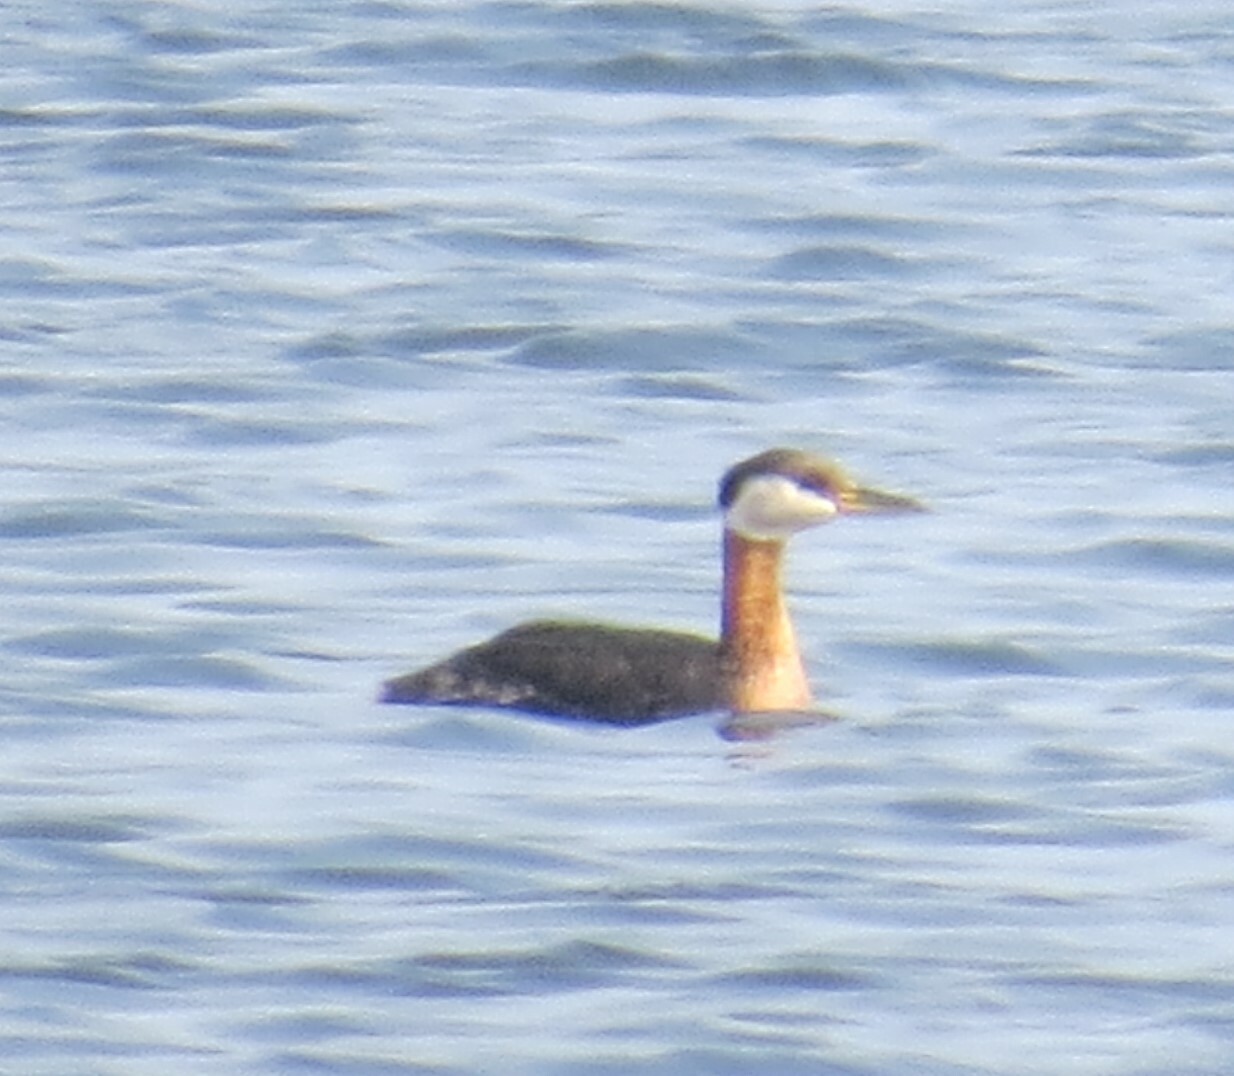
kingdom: Animalia
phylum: Chordata
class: Aves
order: Podicipediformes
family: Podicipedidae
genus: Podiceps
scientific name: Podiceps grisegena
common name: Red-necked grebe
